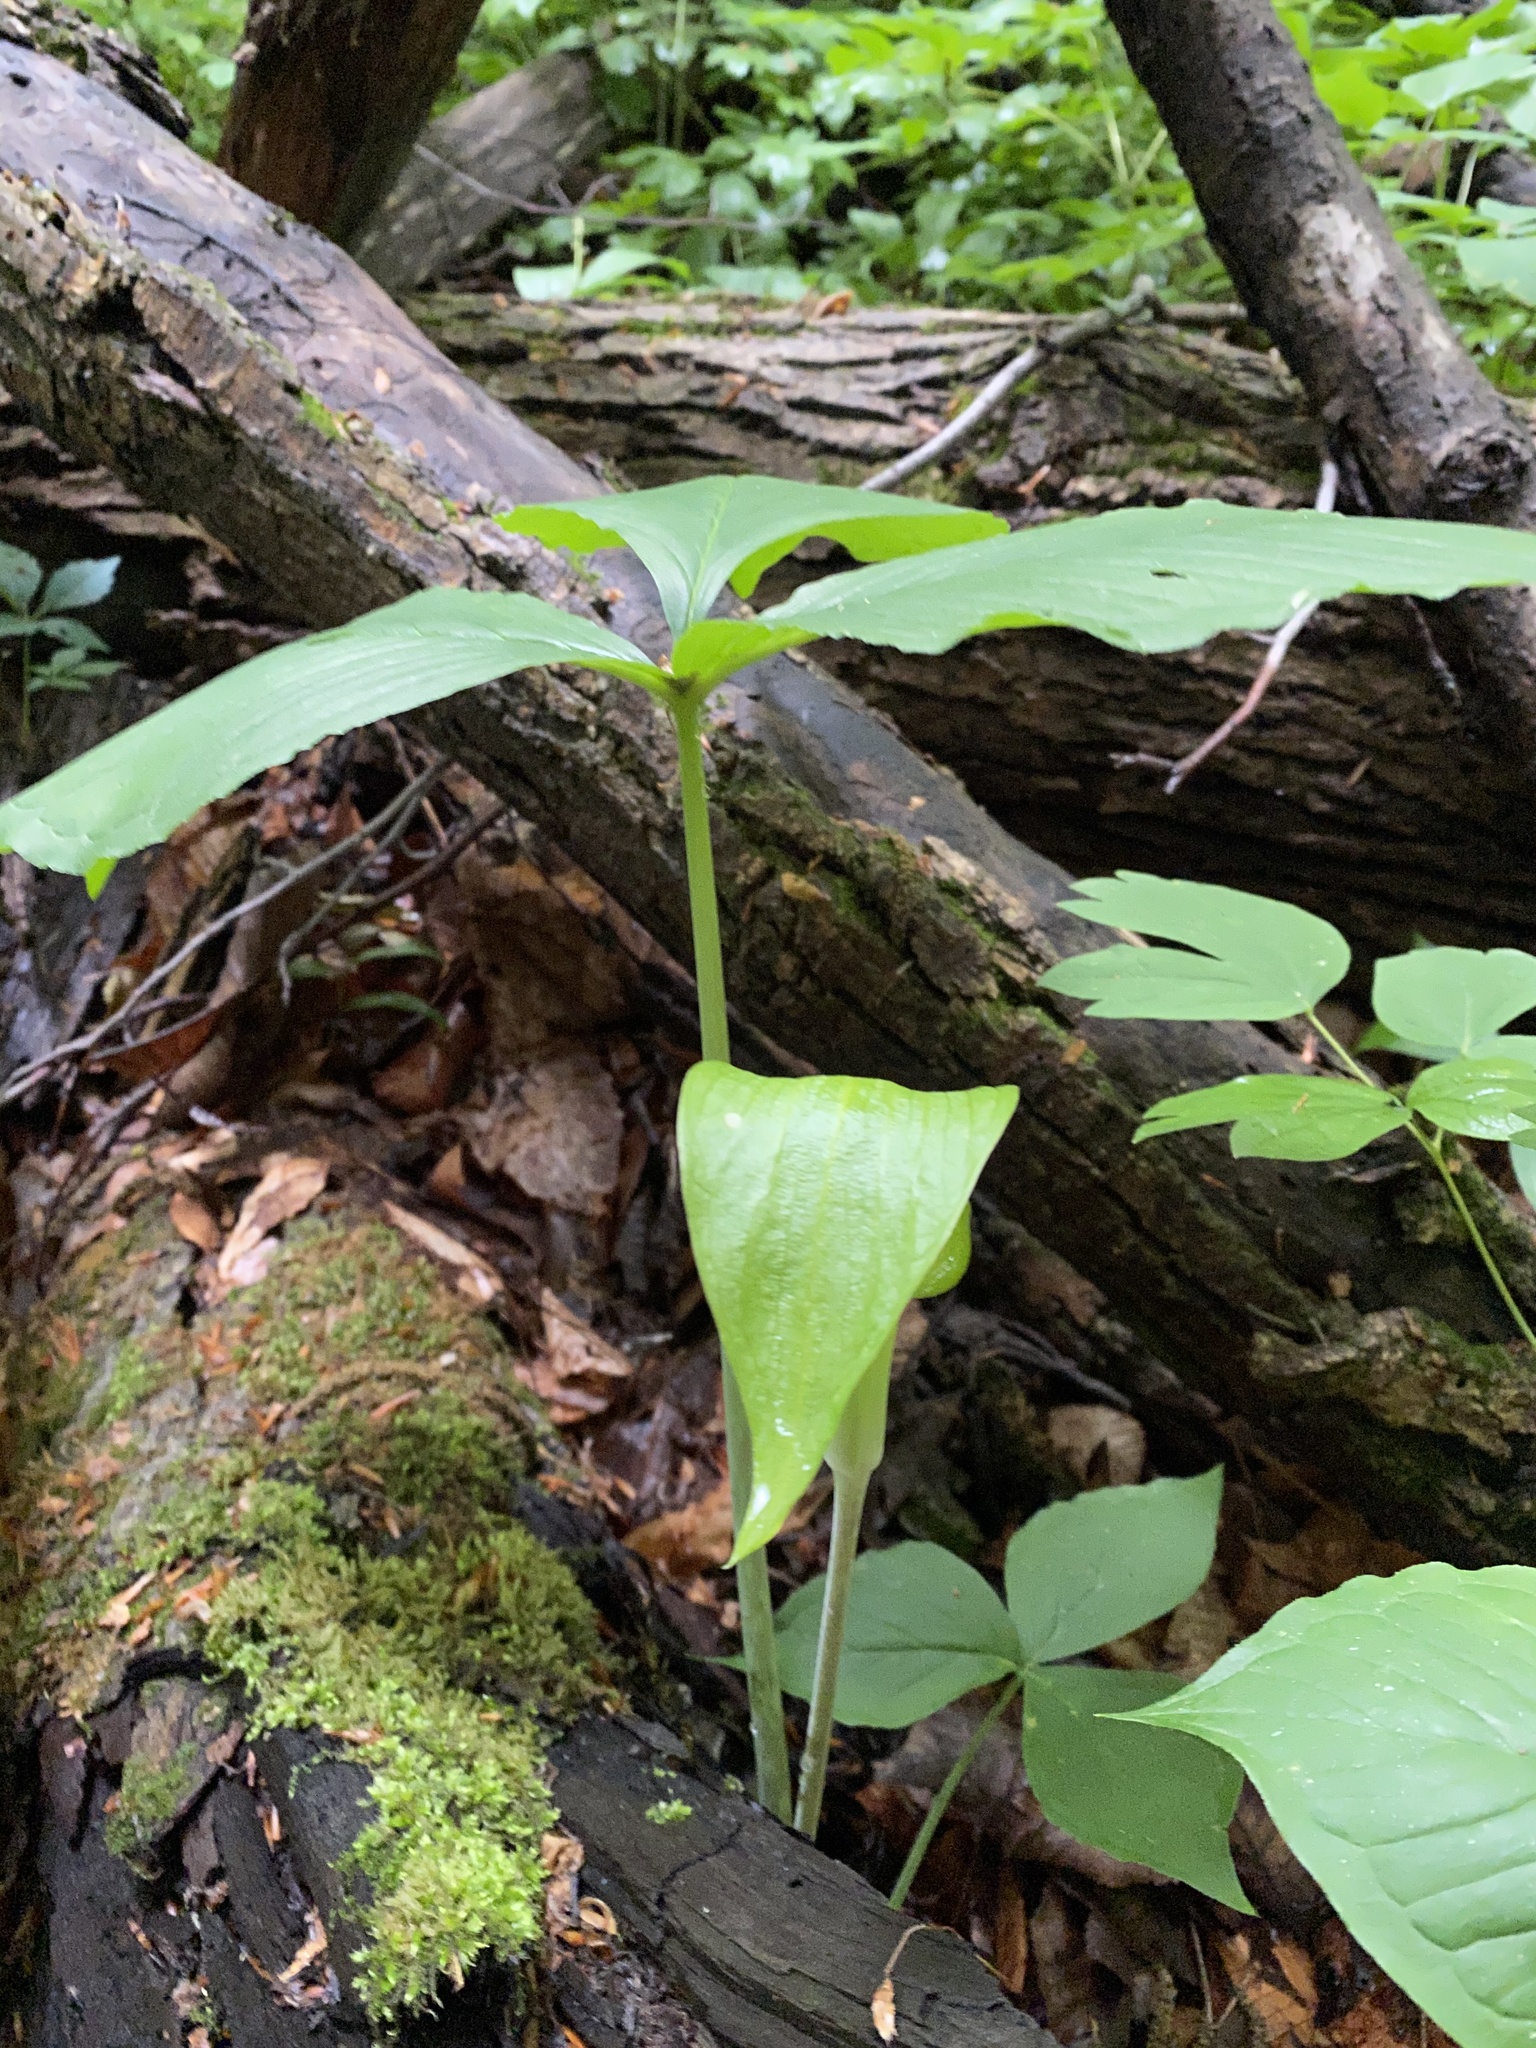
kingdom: Plantae
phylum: Tracheophyta
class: Liliopsida
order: Alismatales
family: Araceae
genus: Arisaema
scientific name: Arisaema triphyllum
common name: Jack-in-the-pulpit
